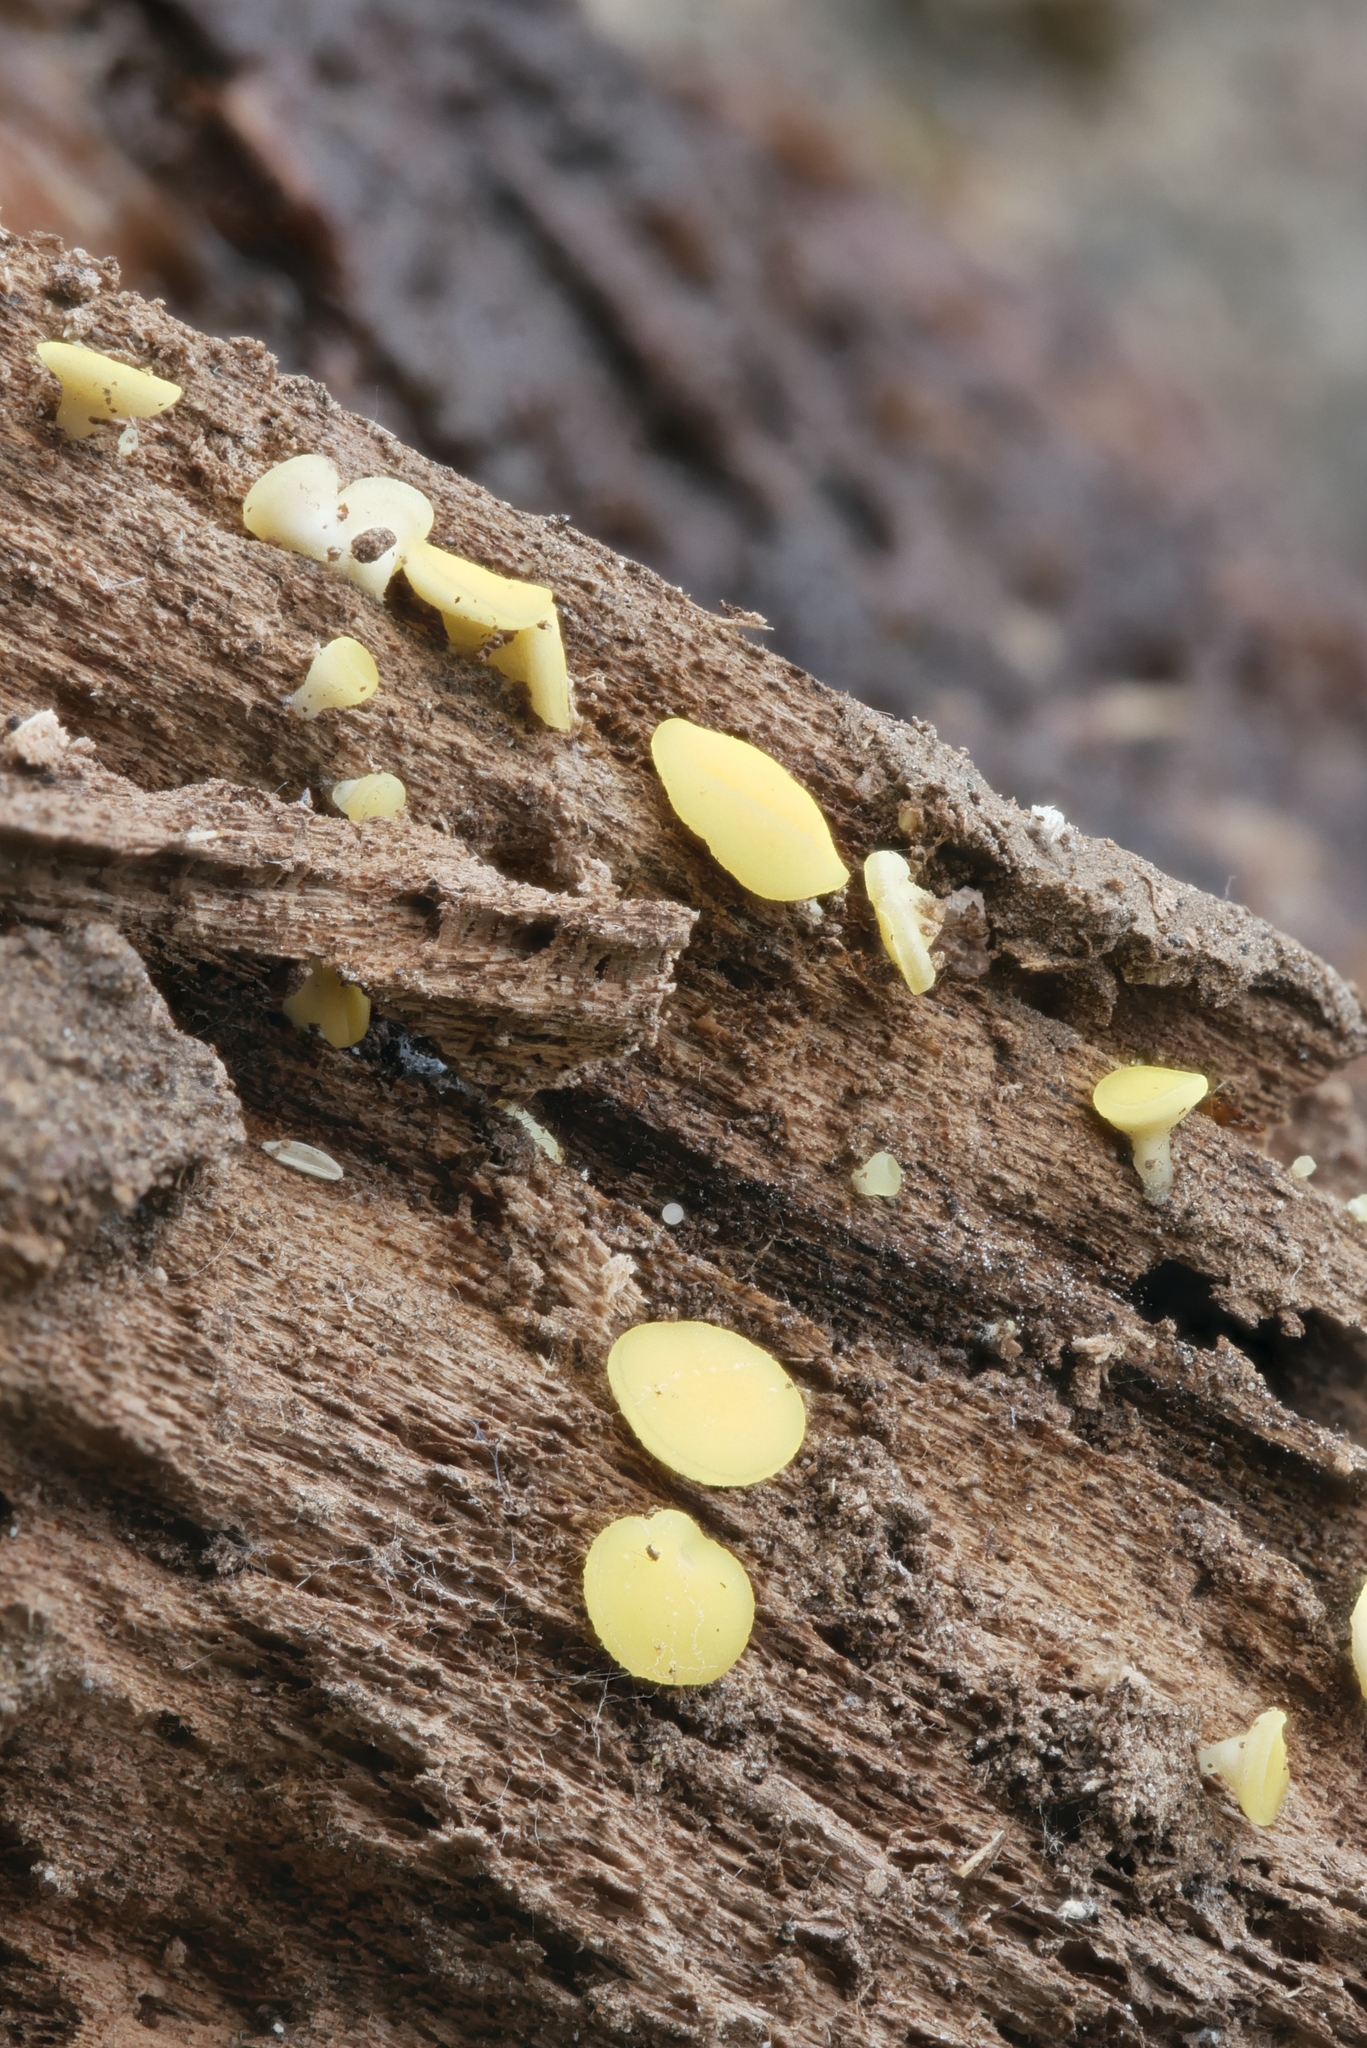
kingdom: Fungi
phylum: Ascomycota
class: Leotiomycetes
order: Helotiales
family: Pezizellaceae
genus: Calycina
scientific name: Calycina citrina
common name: Yellow fairy cups
